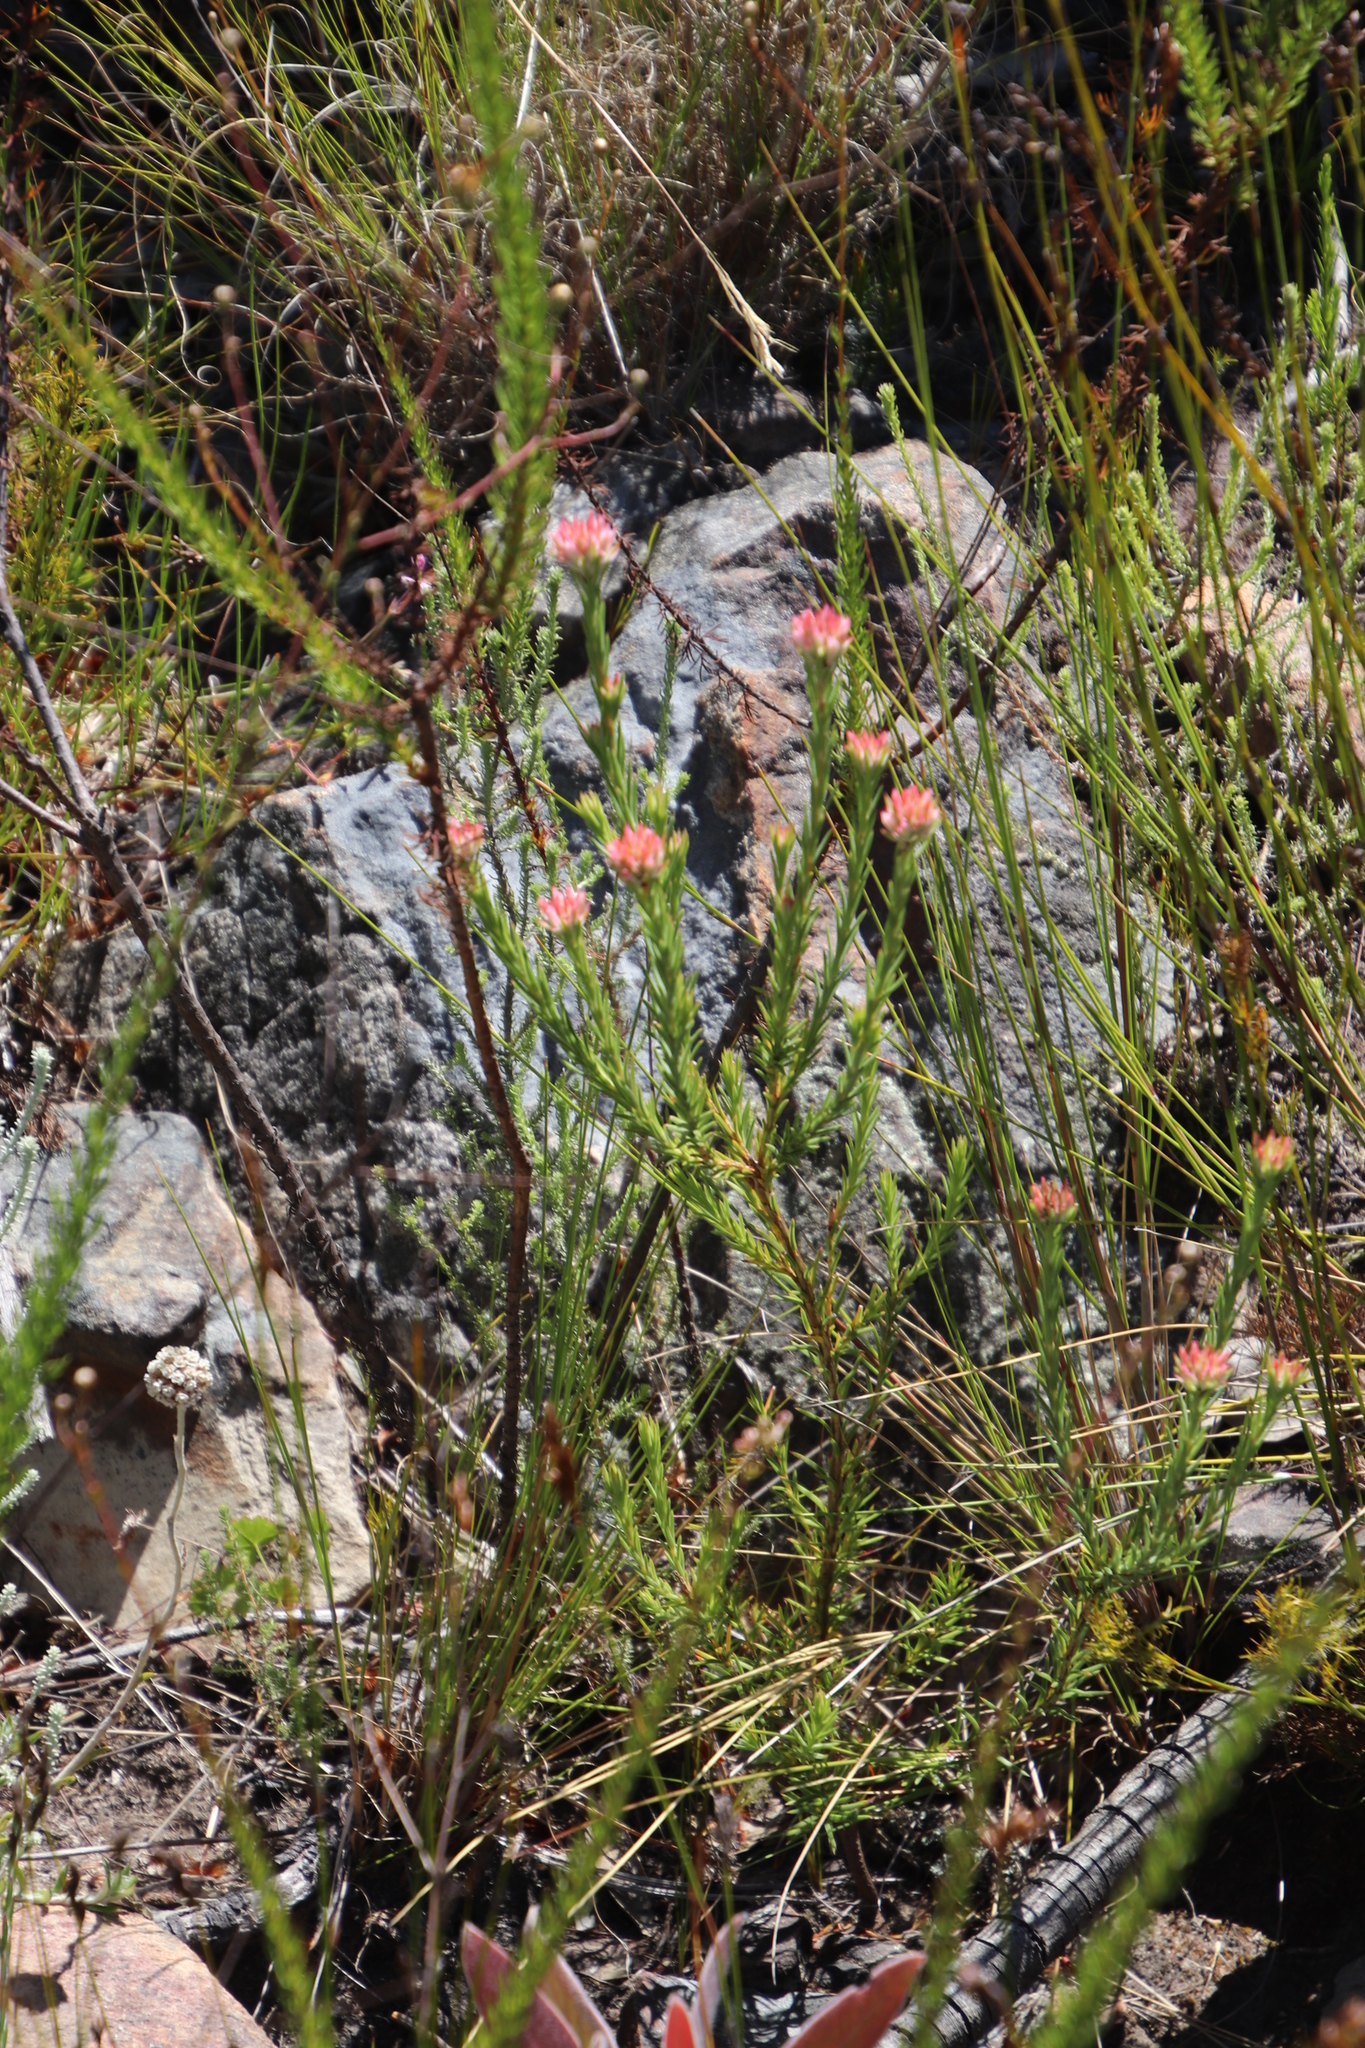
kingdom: Plantae
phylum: Tracheophyta
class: Magnoliopsida
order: Ericales
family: Ericaceae
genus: Erica
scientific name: Erica taxifolia
